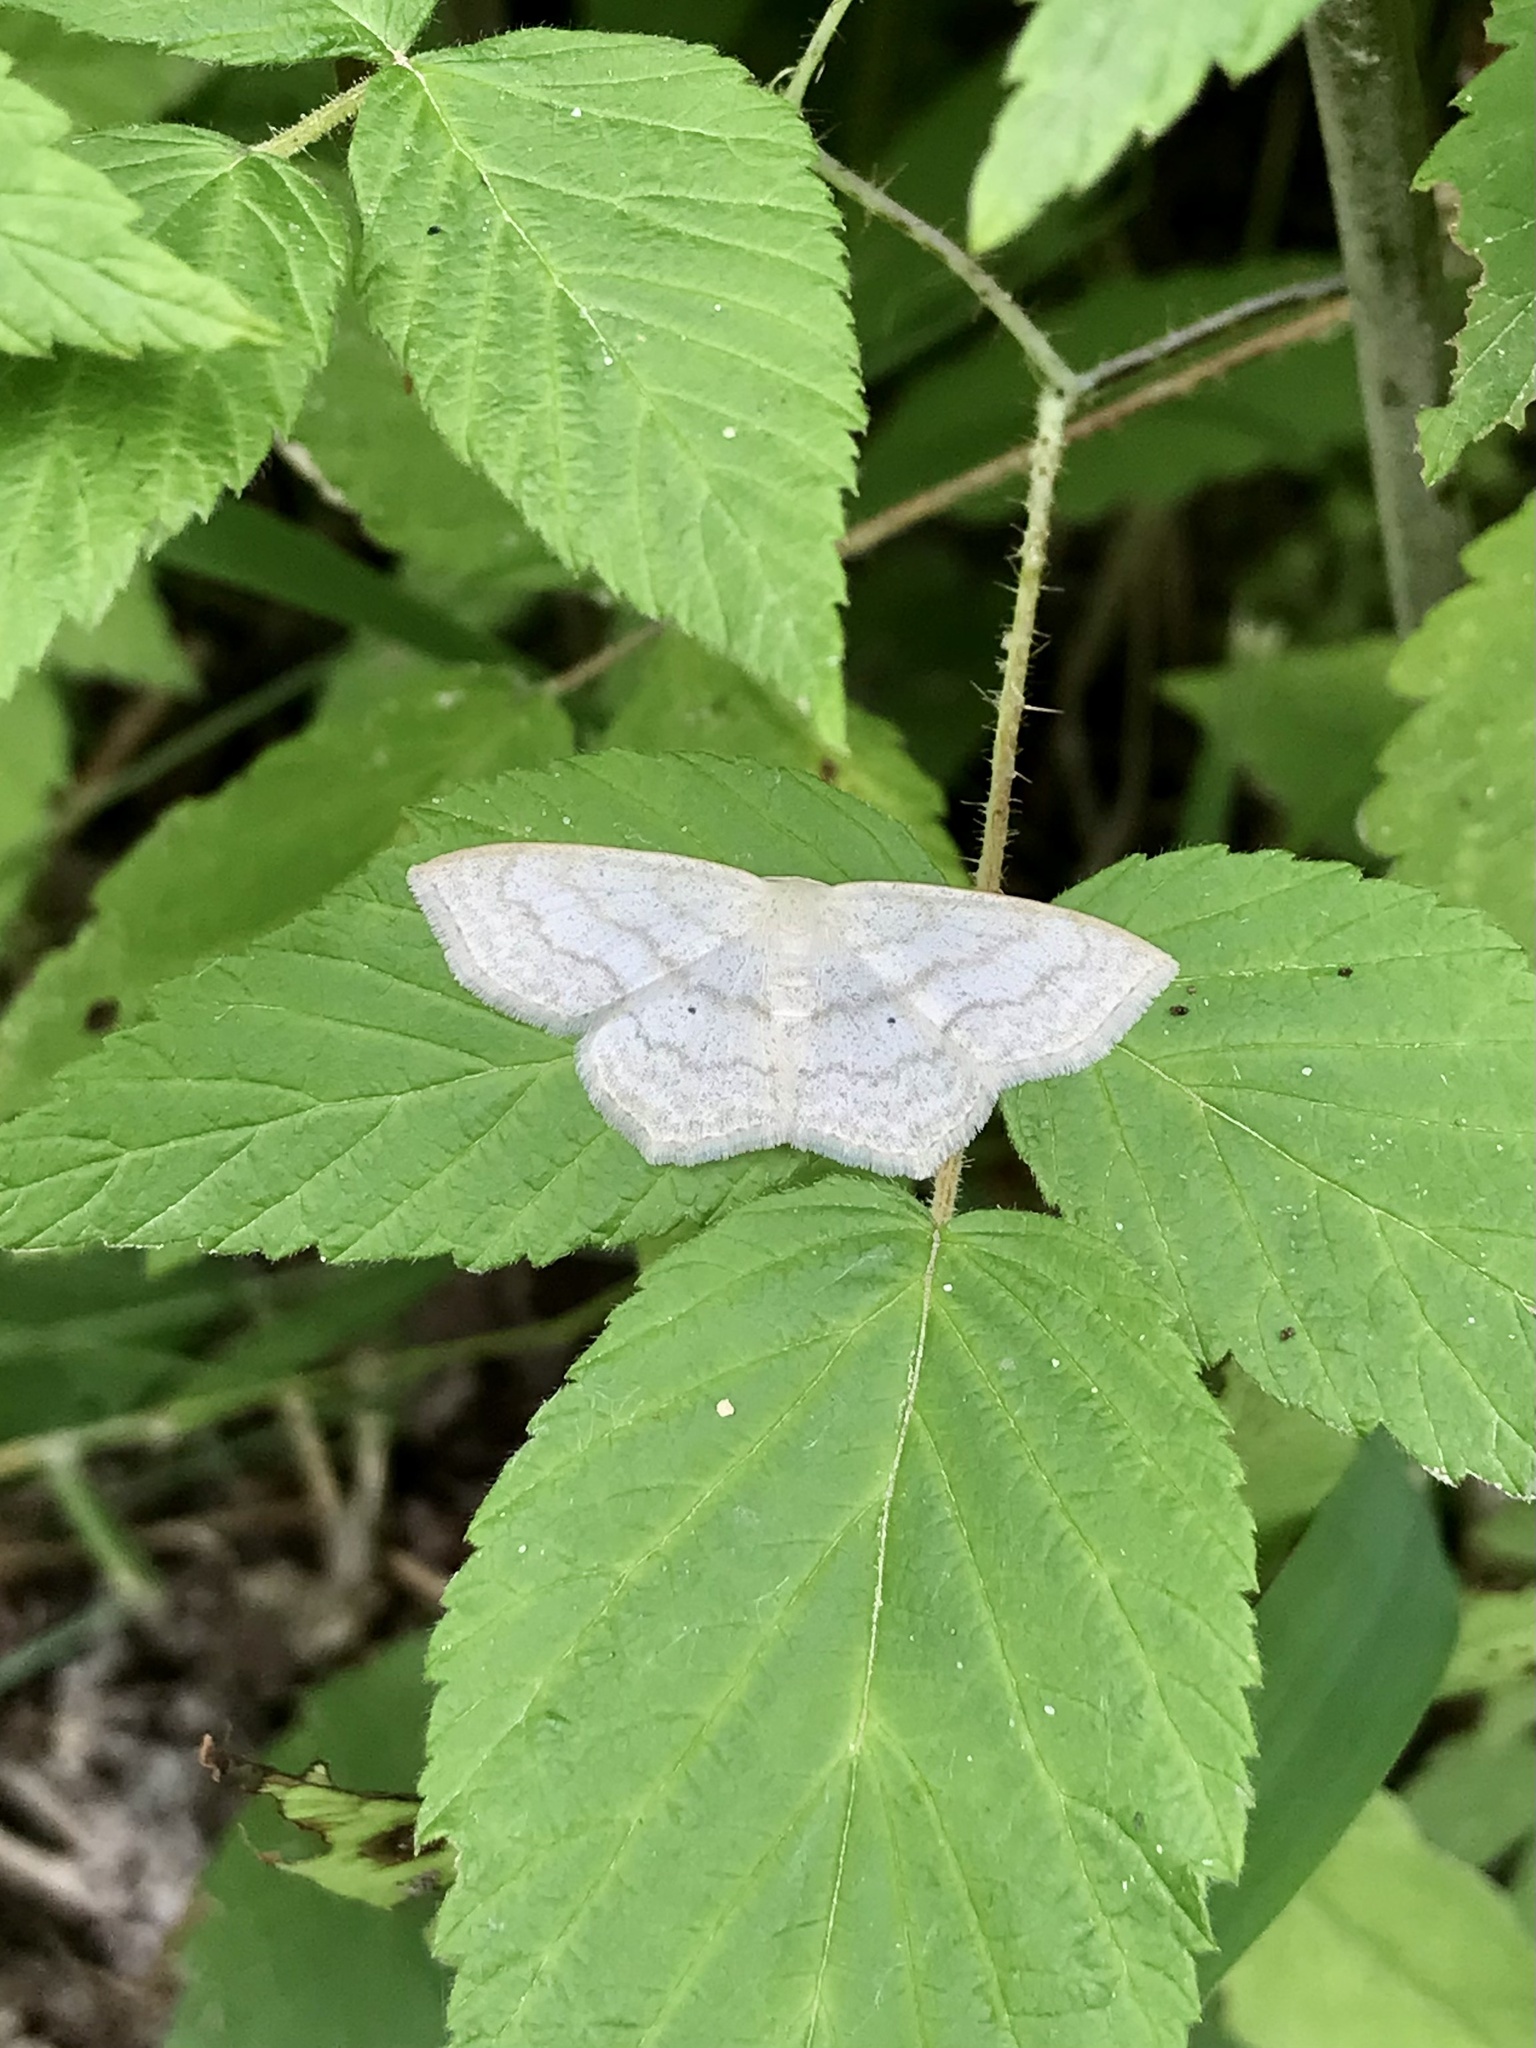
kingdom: Animalia
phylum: Arthropoda
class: Insecta
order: Lepidoptera
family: Geometridae
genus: Scopula
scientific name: Scopula limboundata
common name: Large lace border
